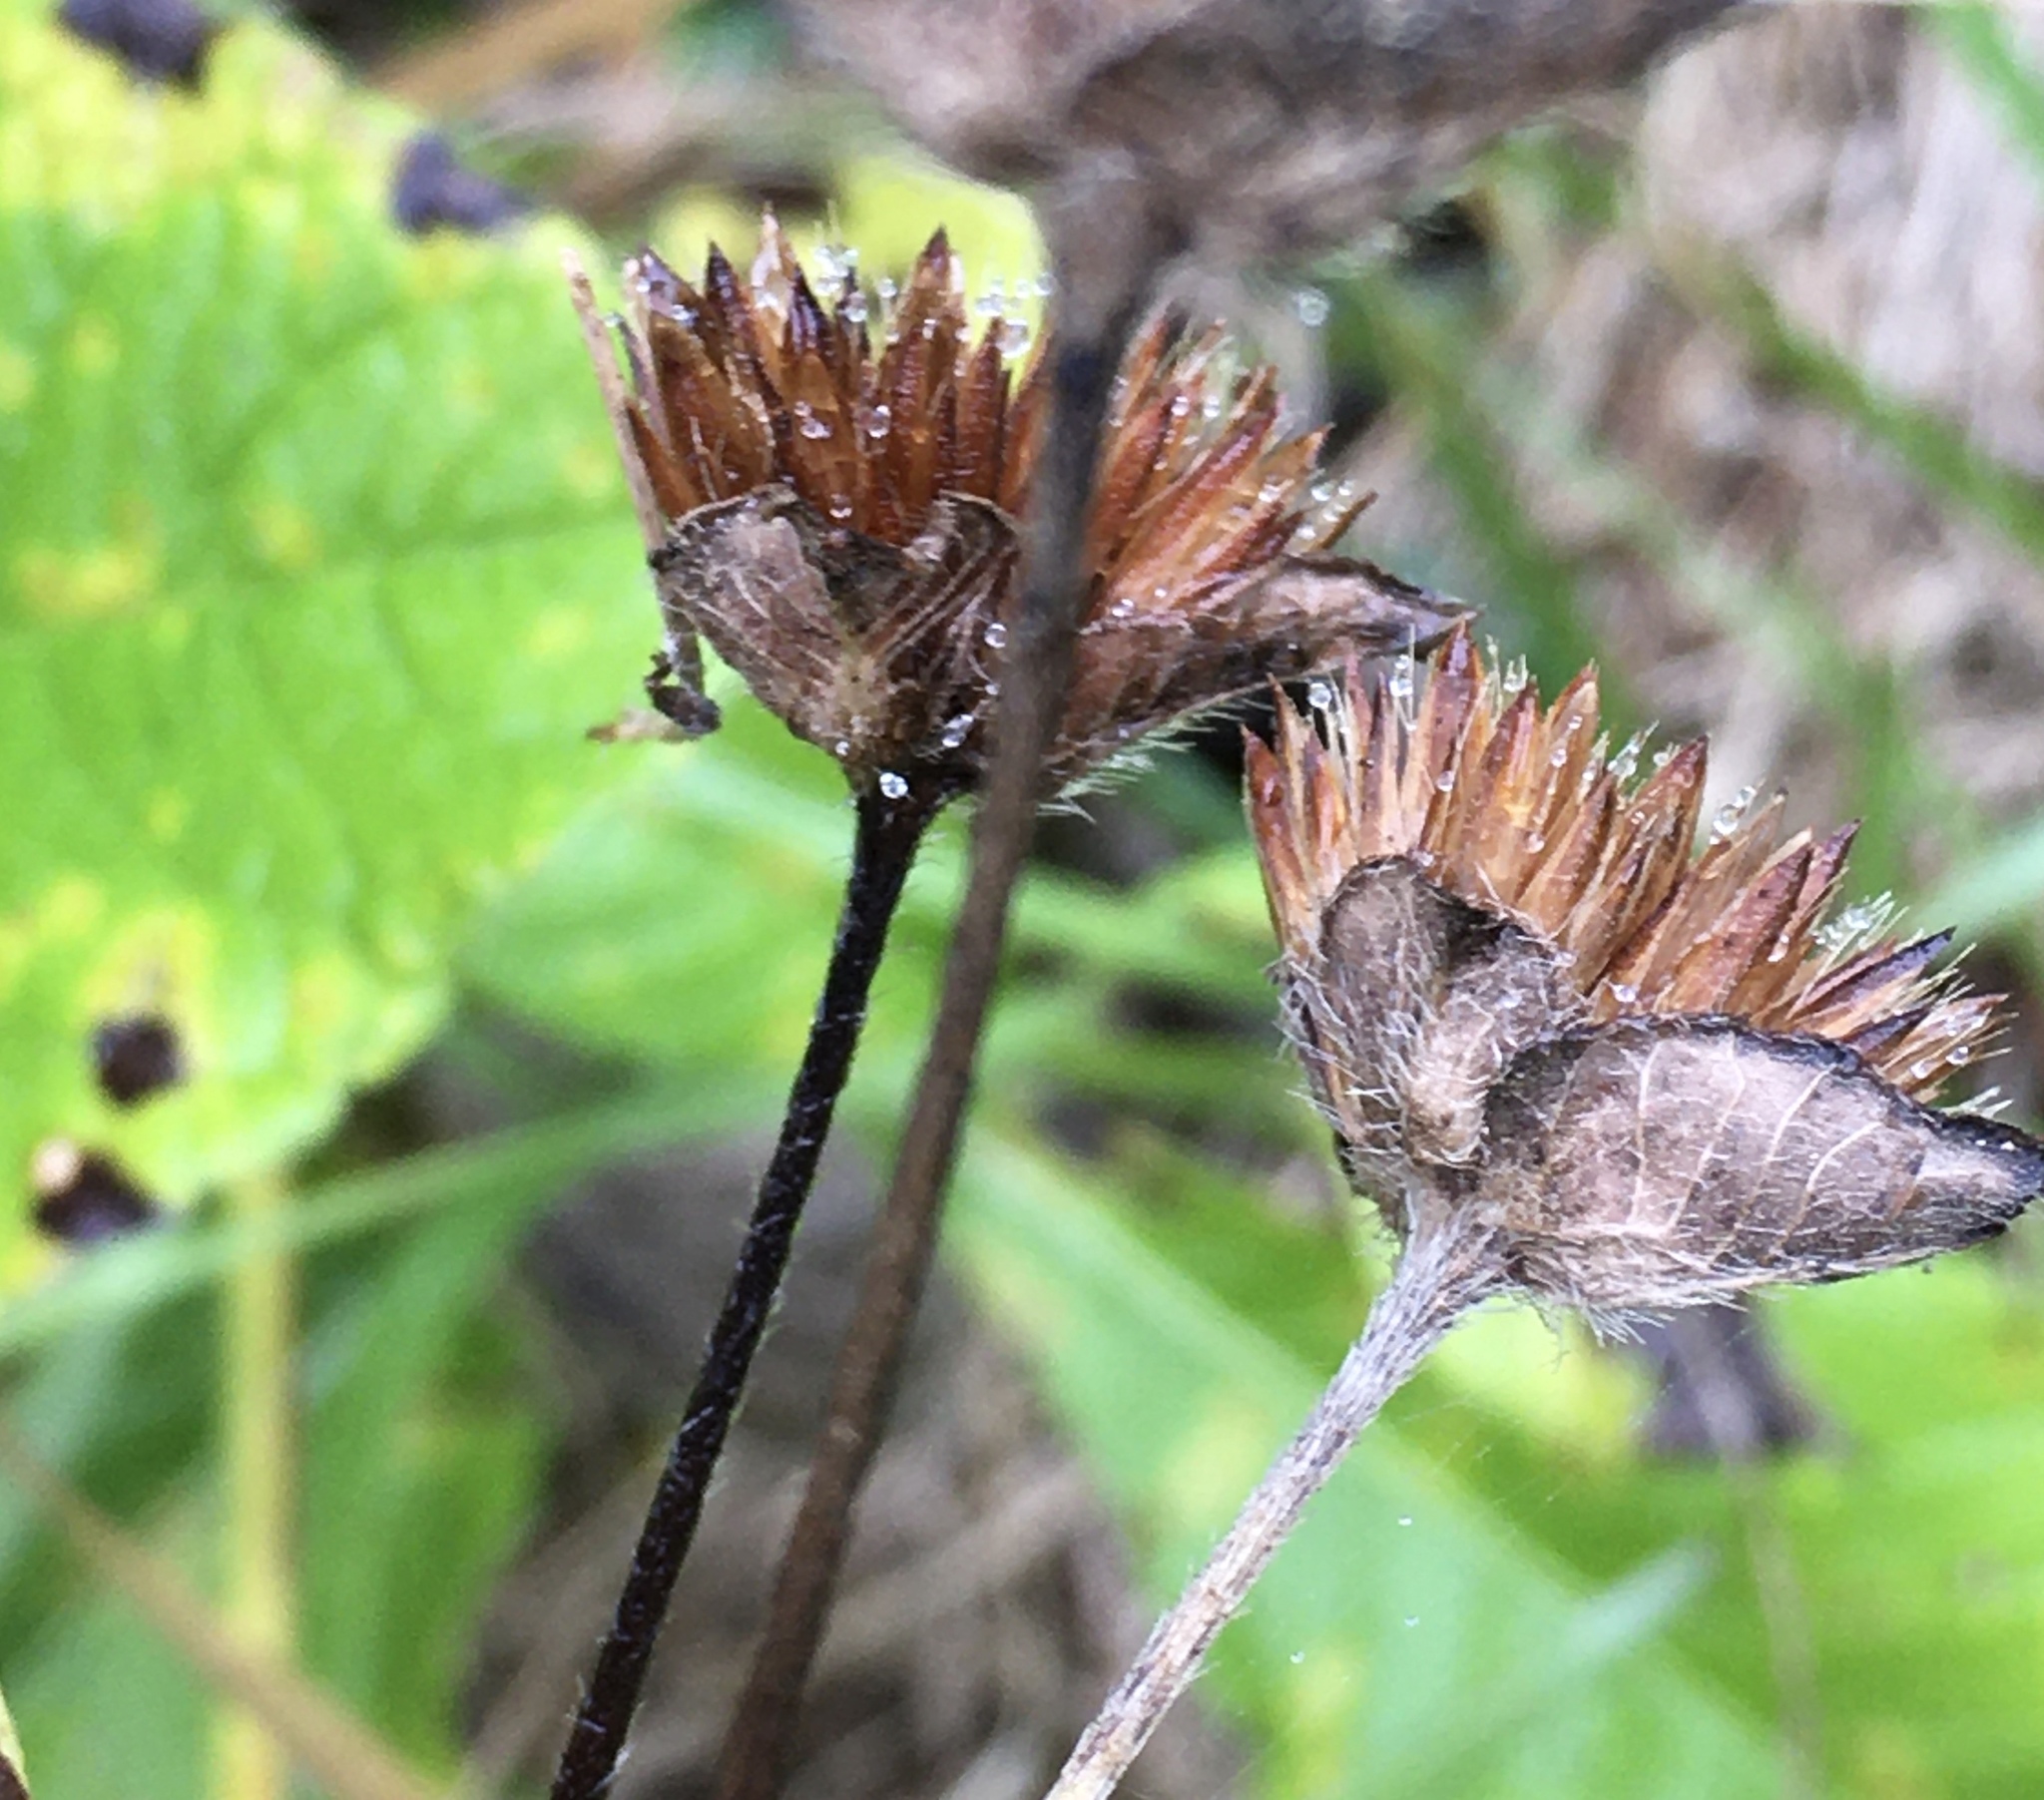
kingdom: Plantae
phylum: Tracheophyta
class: Magnoliopsida
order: Asterales
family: Asteraceae
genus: Elephantopus
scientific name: Elephantopus carolinianus
